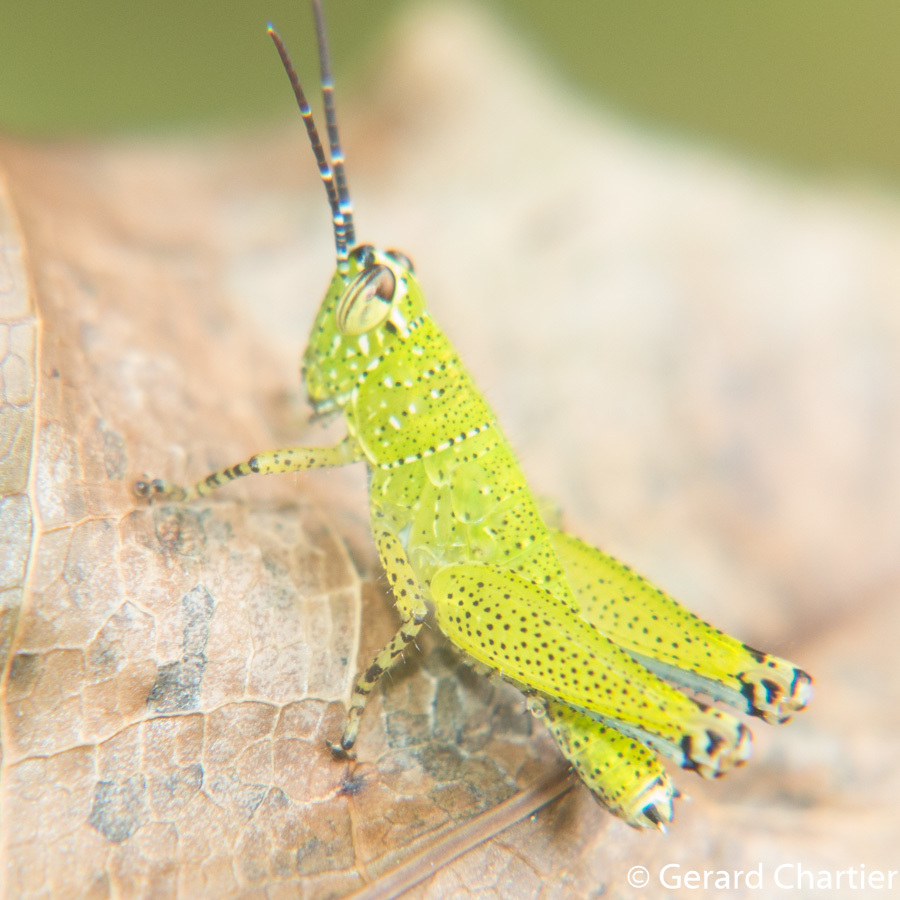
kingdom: Animalia
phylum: Arthropoda
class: Insecta
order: Orthoptera
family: Acrididae
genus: Xenocatantops
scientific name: Xenocatantops humile
